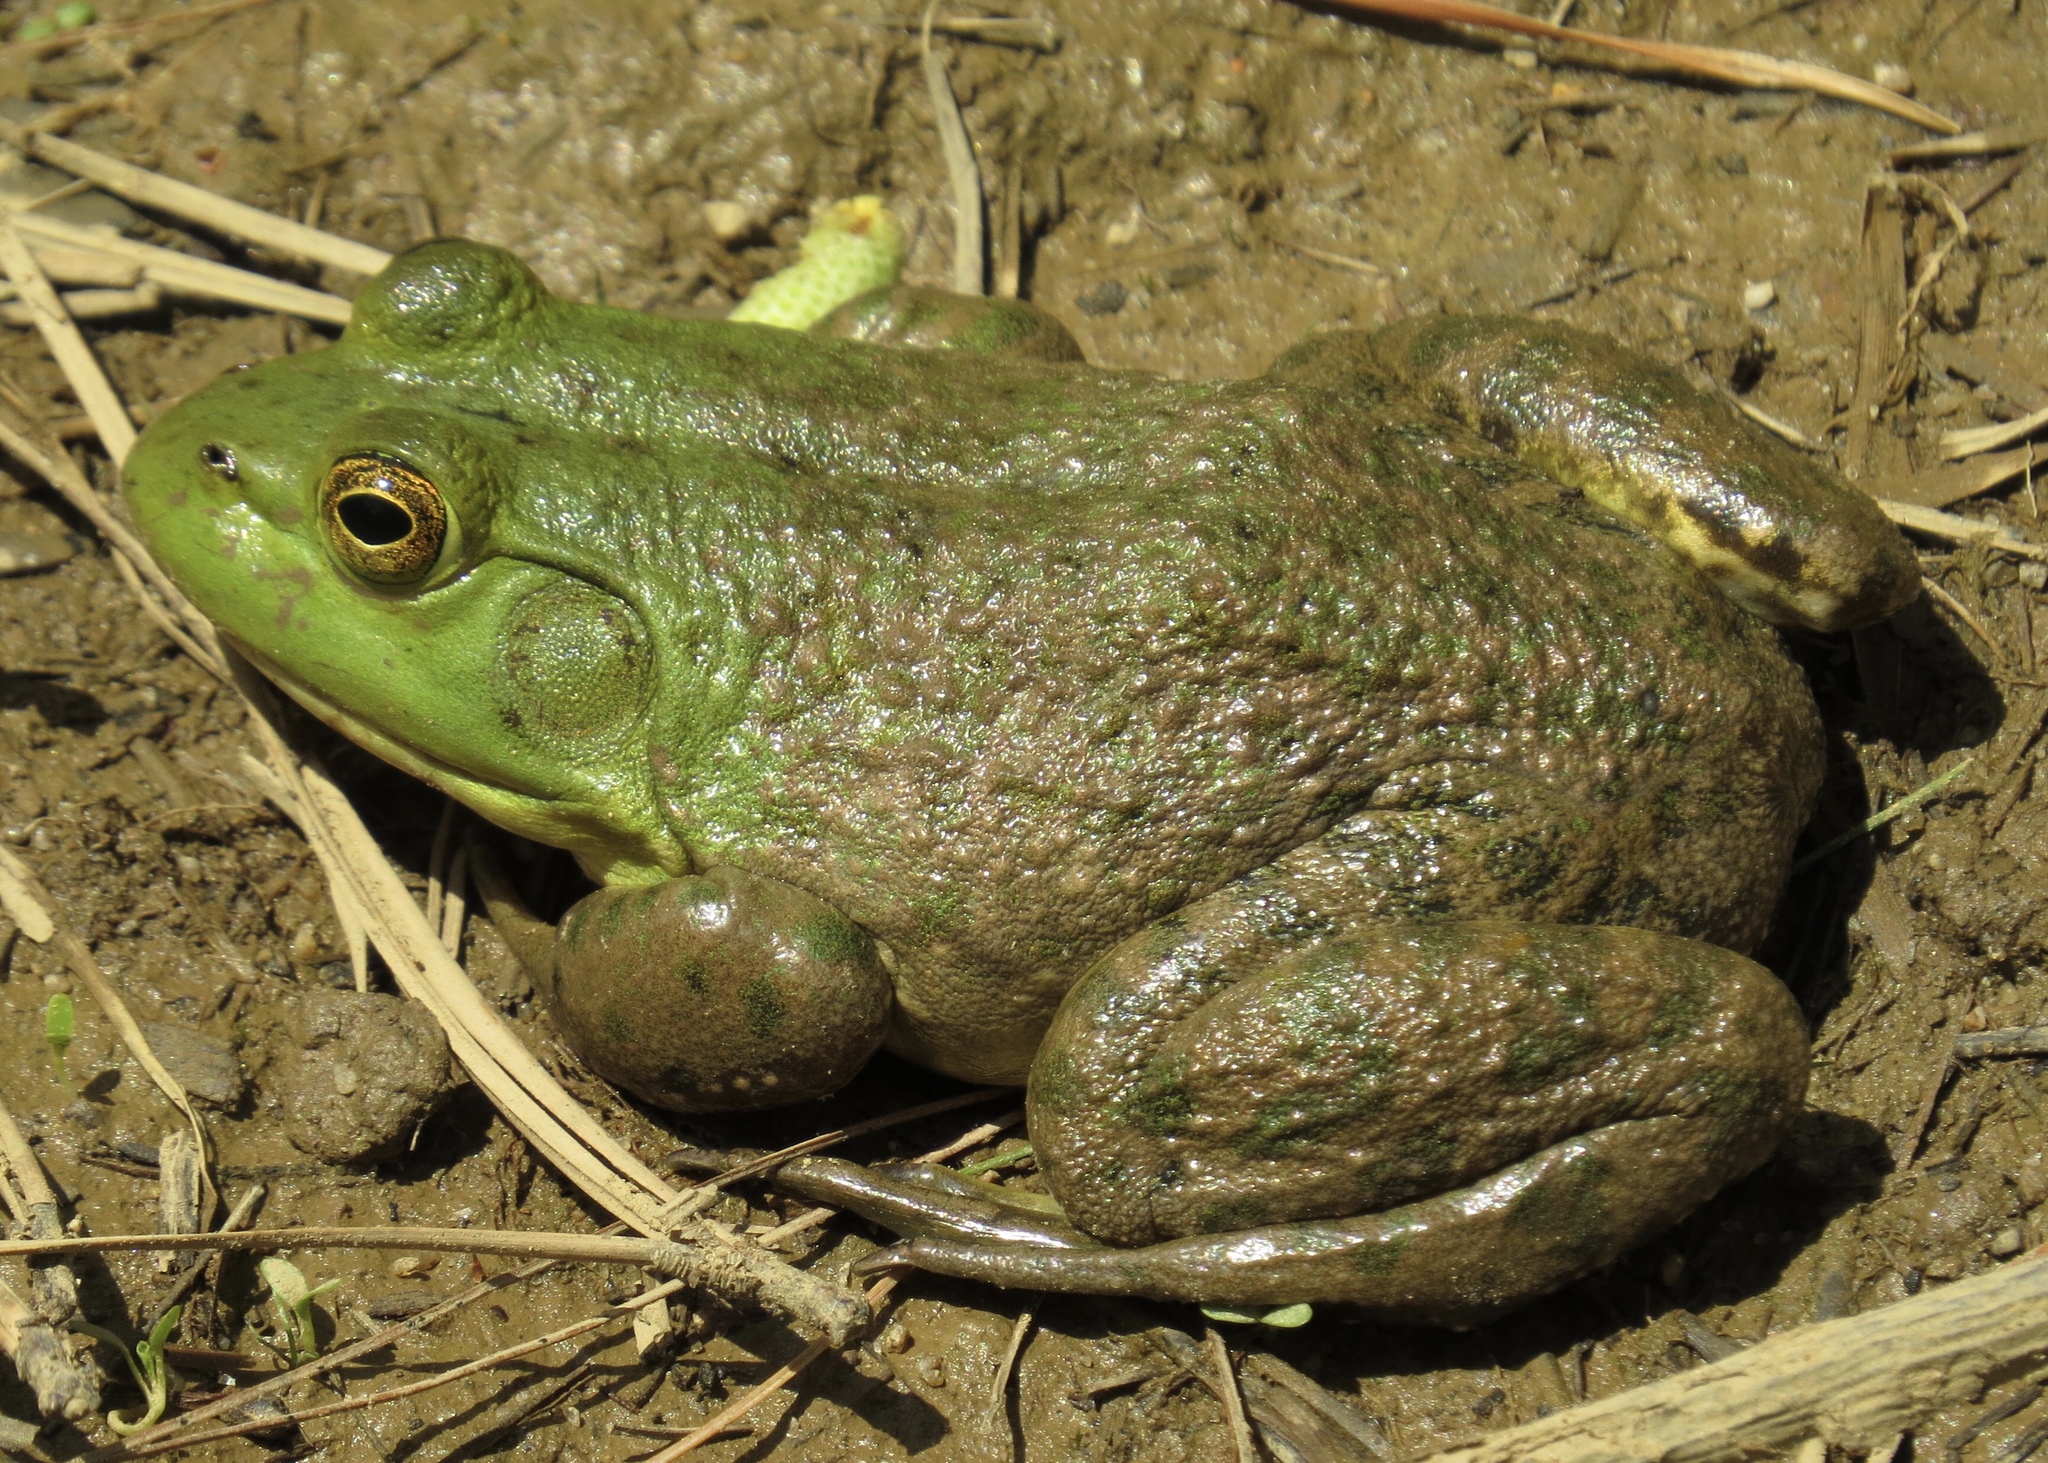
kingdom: Animalia
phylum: Chordata
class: Amphibia
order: Anura
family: Ranidae
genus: Lithobates
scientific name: Lithobates catesbeianus
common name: American bullfrog
